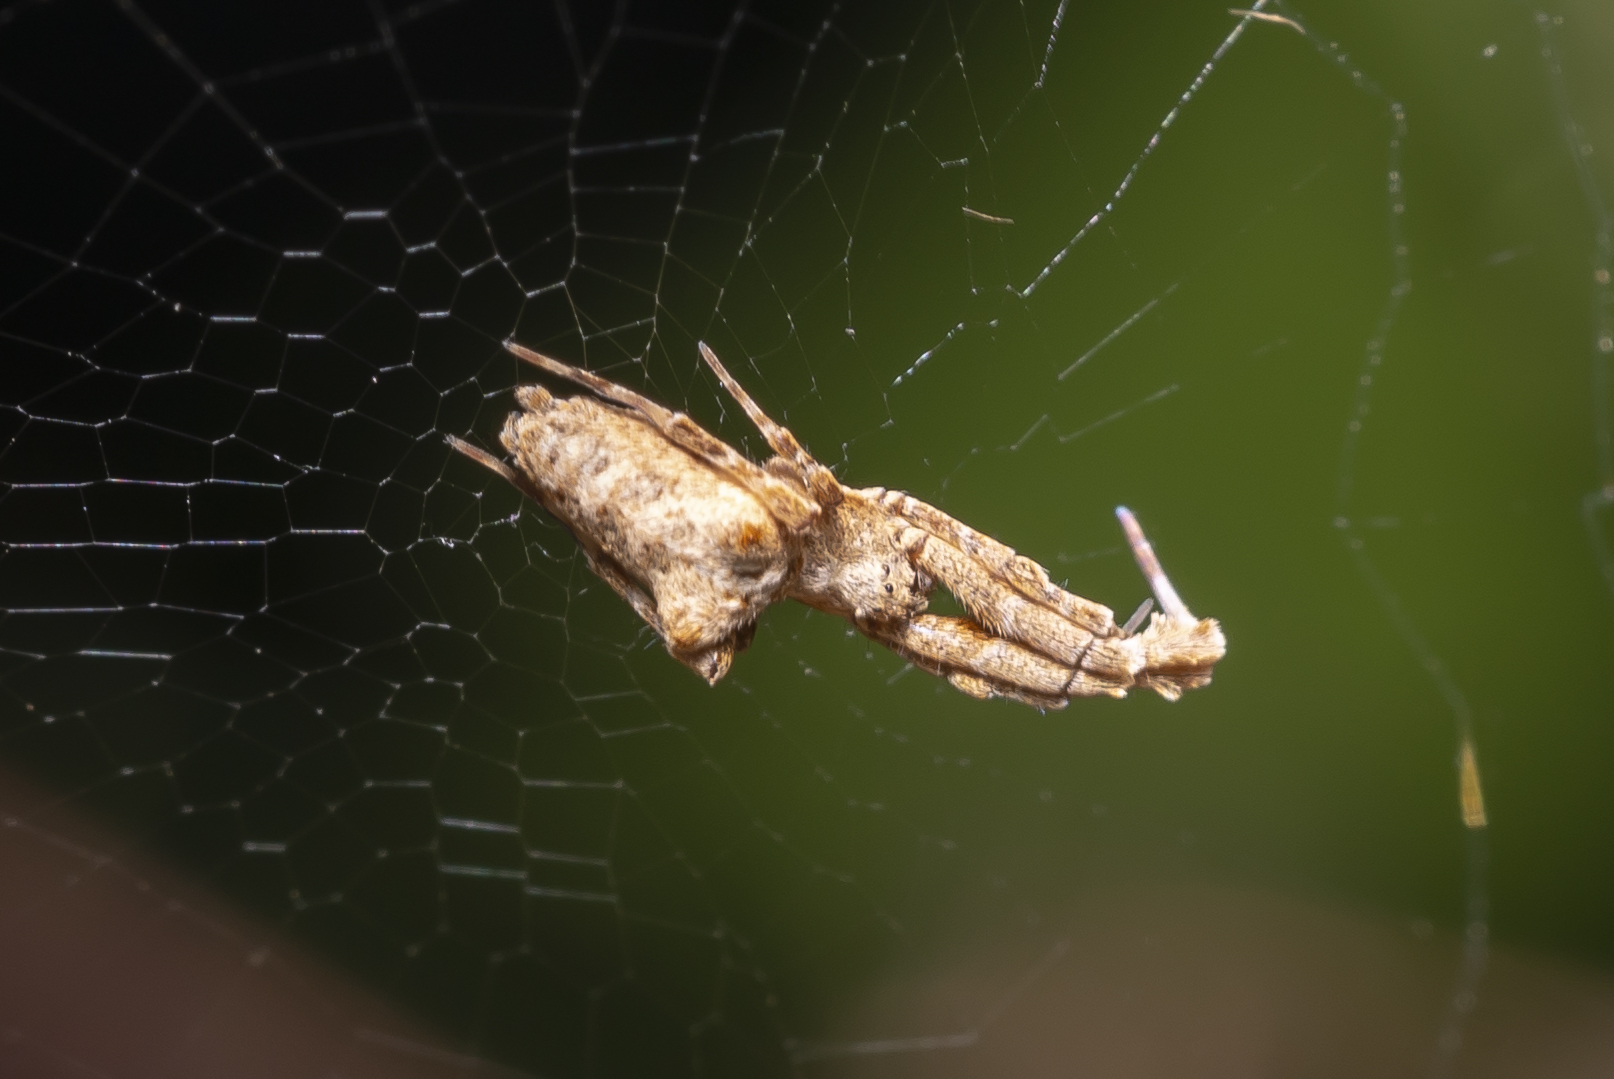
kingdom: Animalia
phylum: Arthropoda
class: Arachnida
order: Araneae
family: Uloboridae
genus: Uloborus
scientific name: Uloborus plumipes
